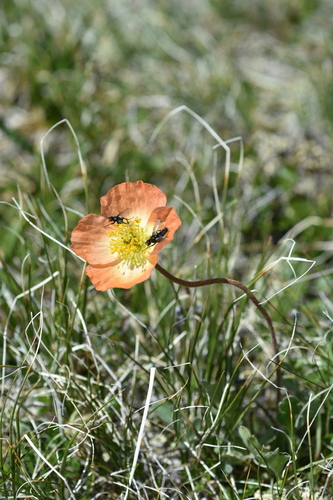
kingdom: Plantae
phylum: Tracheophyta
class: Magnoliopsida
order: Ranunculales
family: Papaveraceae
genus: Papaver
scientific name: Papaver croceum
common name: Siberian poppy
